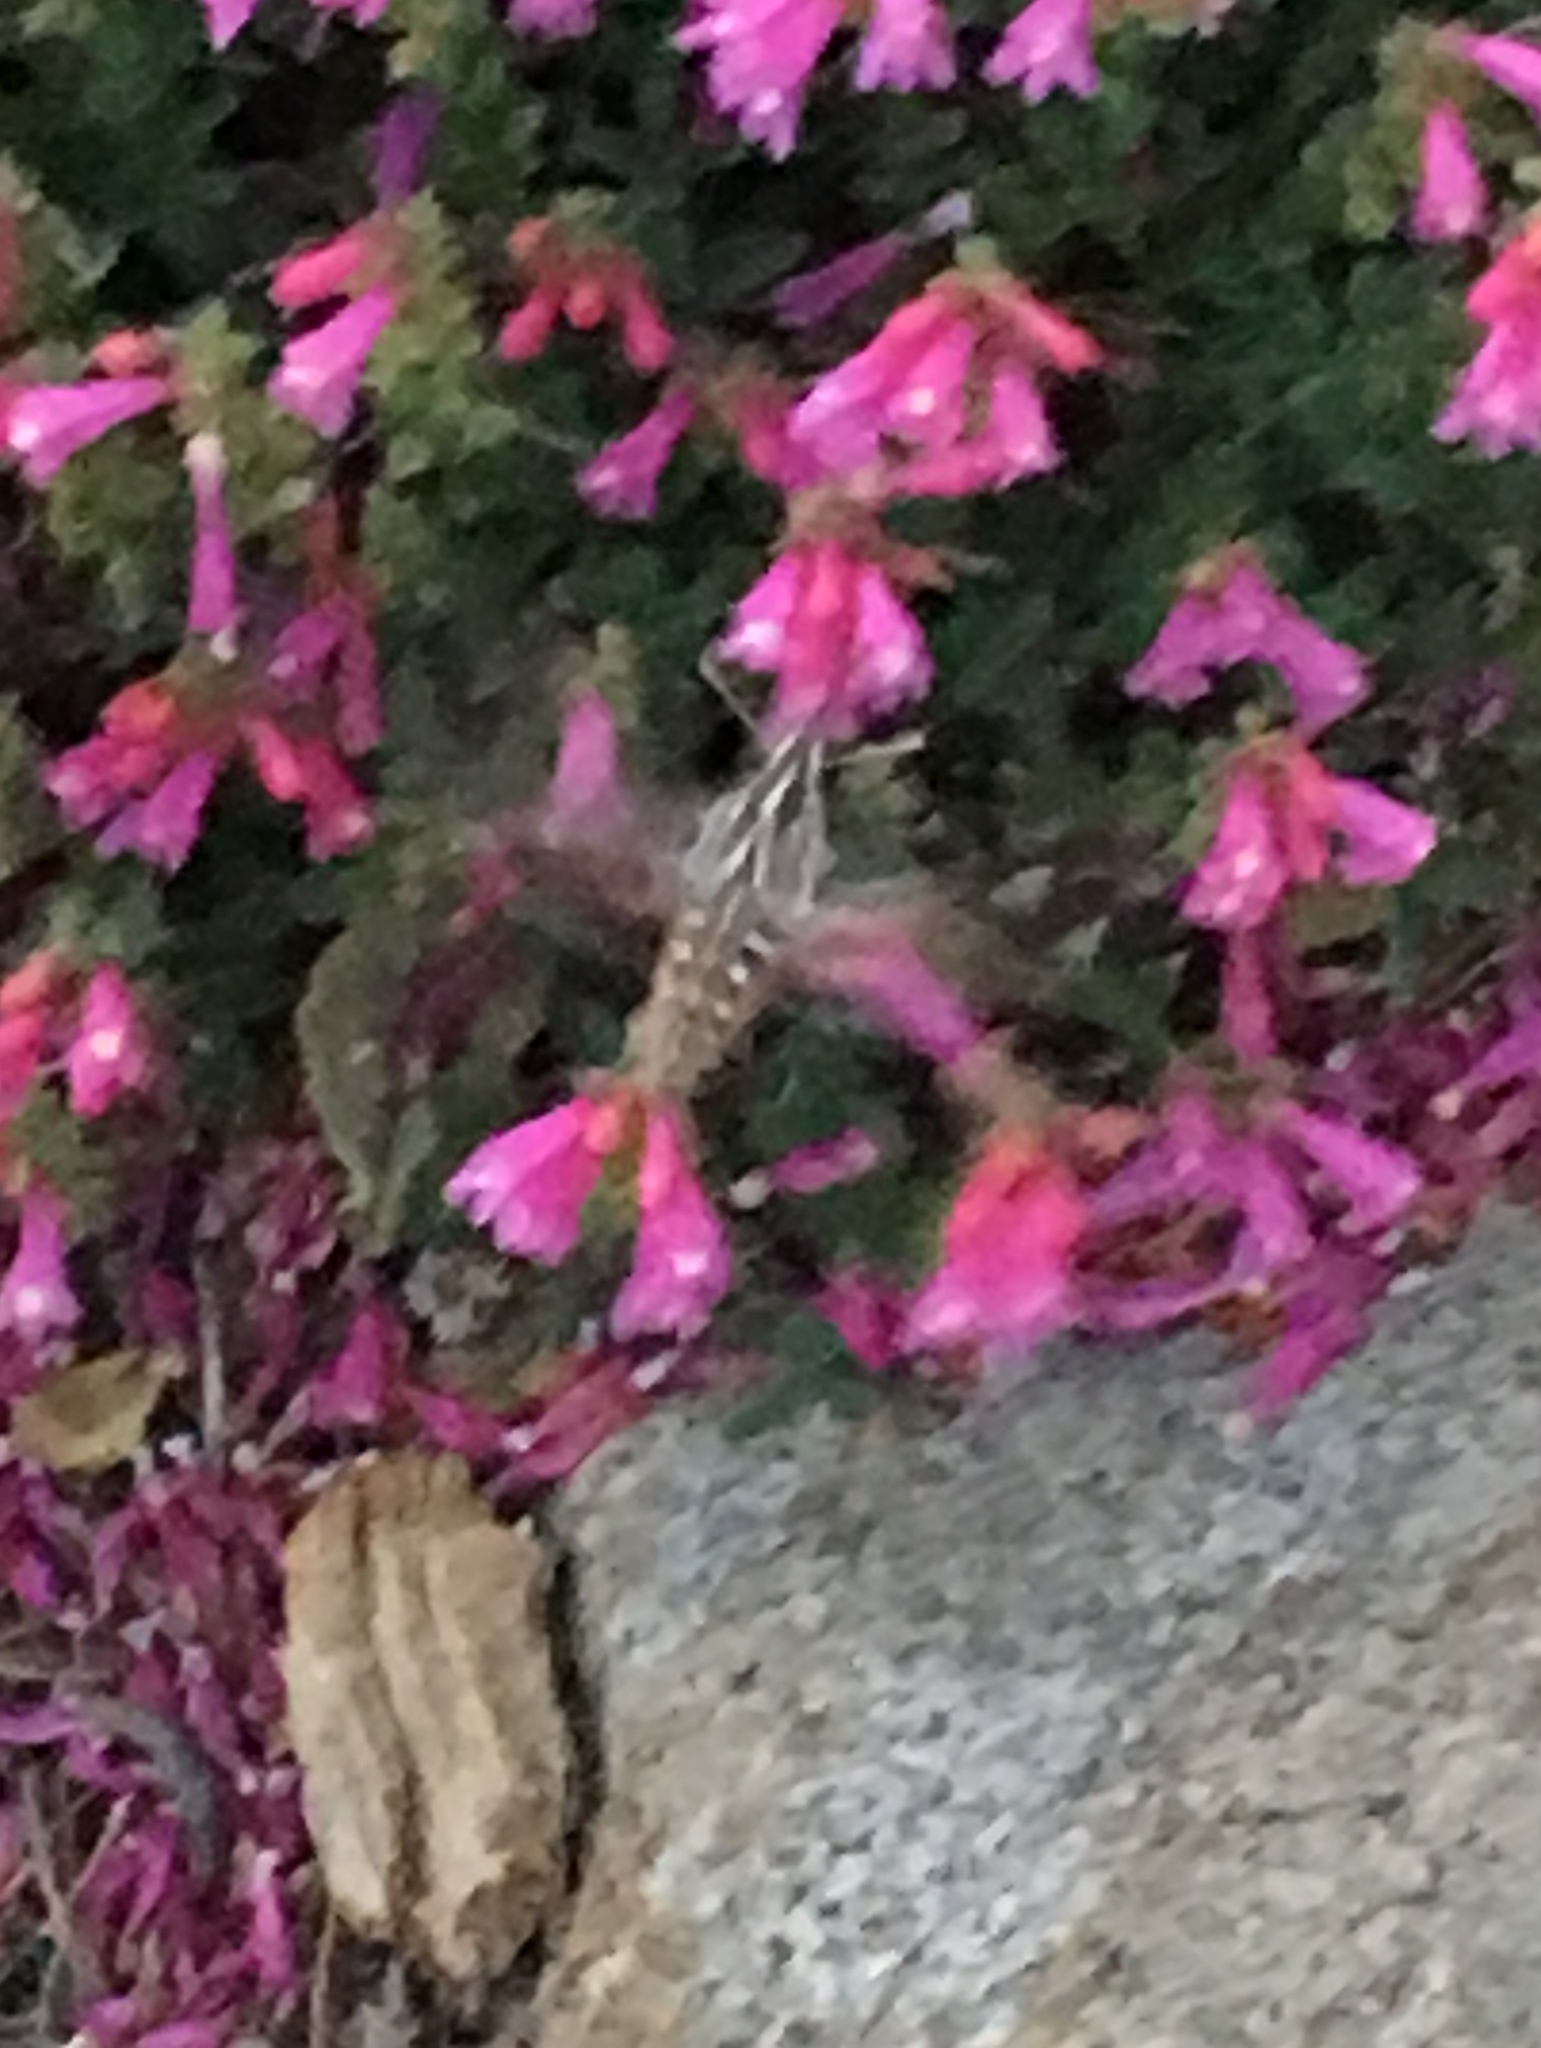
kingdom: Animalia
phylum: Arthropoda
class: Insecta
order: Lepidoptera
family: Sphingidae
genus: Hyles
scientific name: Hyles lineata
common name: White-lined sphinx
